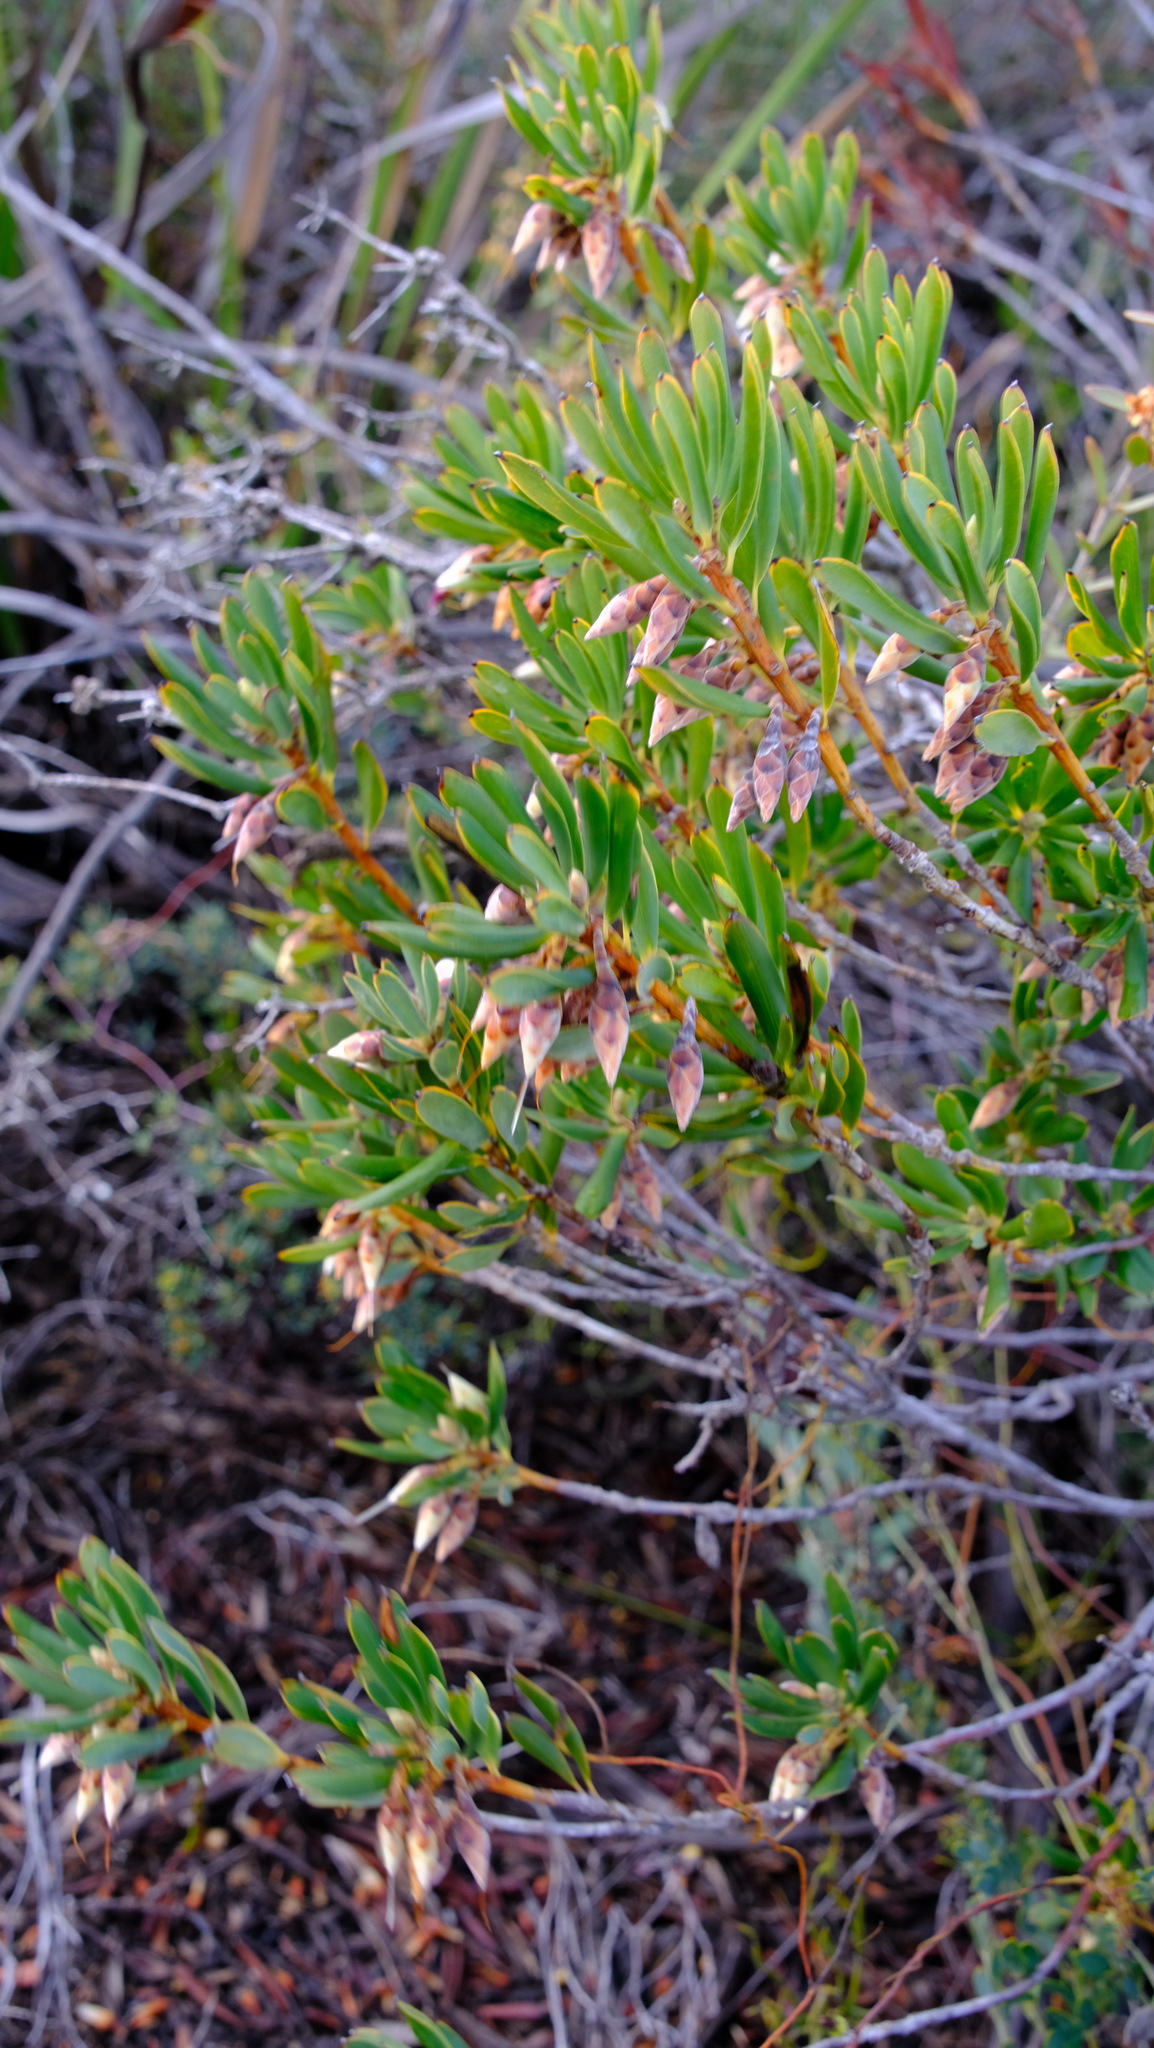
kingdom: Plantae
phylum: Tracheophyta
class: Magnoliopsida
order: Ericales
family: Ericaceae
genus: Conostephium
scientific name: Conostephium pendulum
